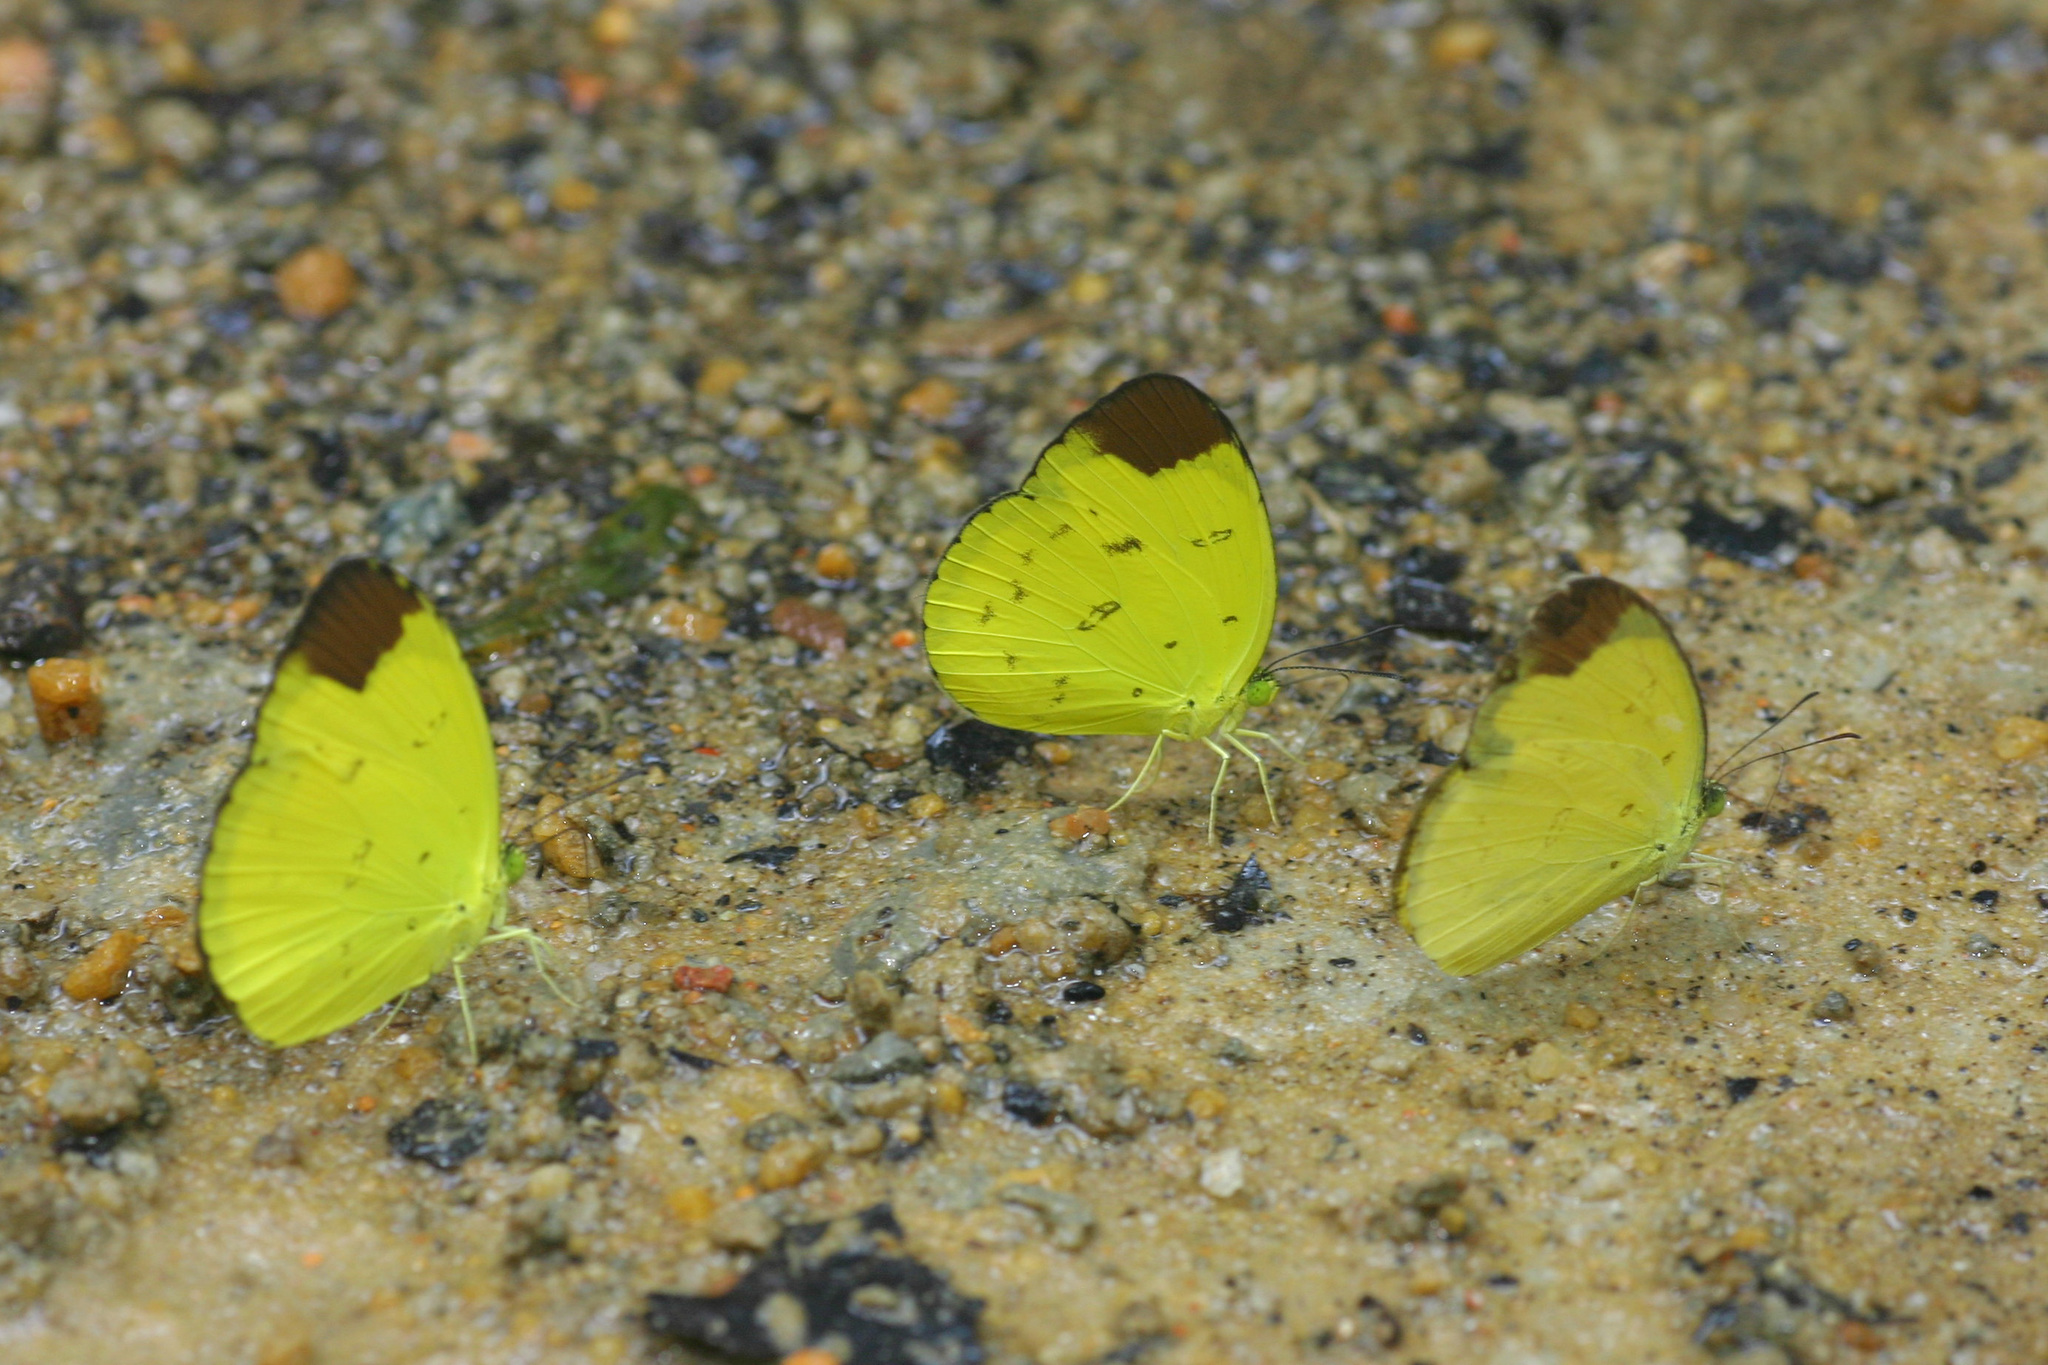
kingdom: Animalia
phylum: Arthropoda
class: Insecta
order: Lepidoptera
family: Pieridae
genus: Eurema
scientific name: Eurema sari
